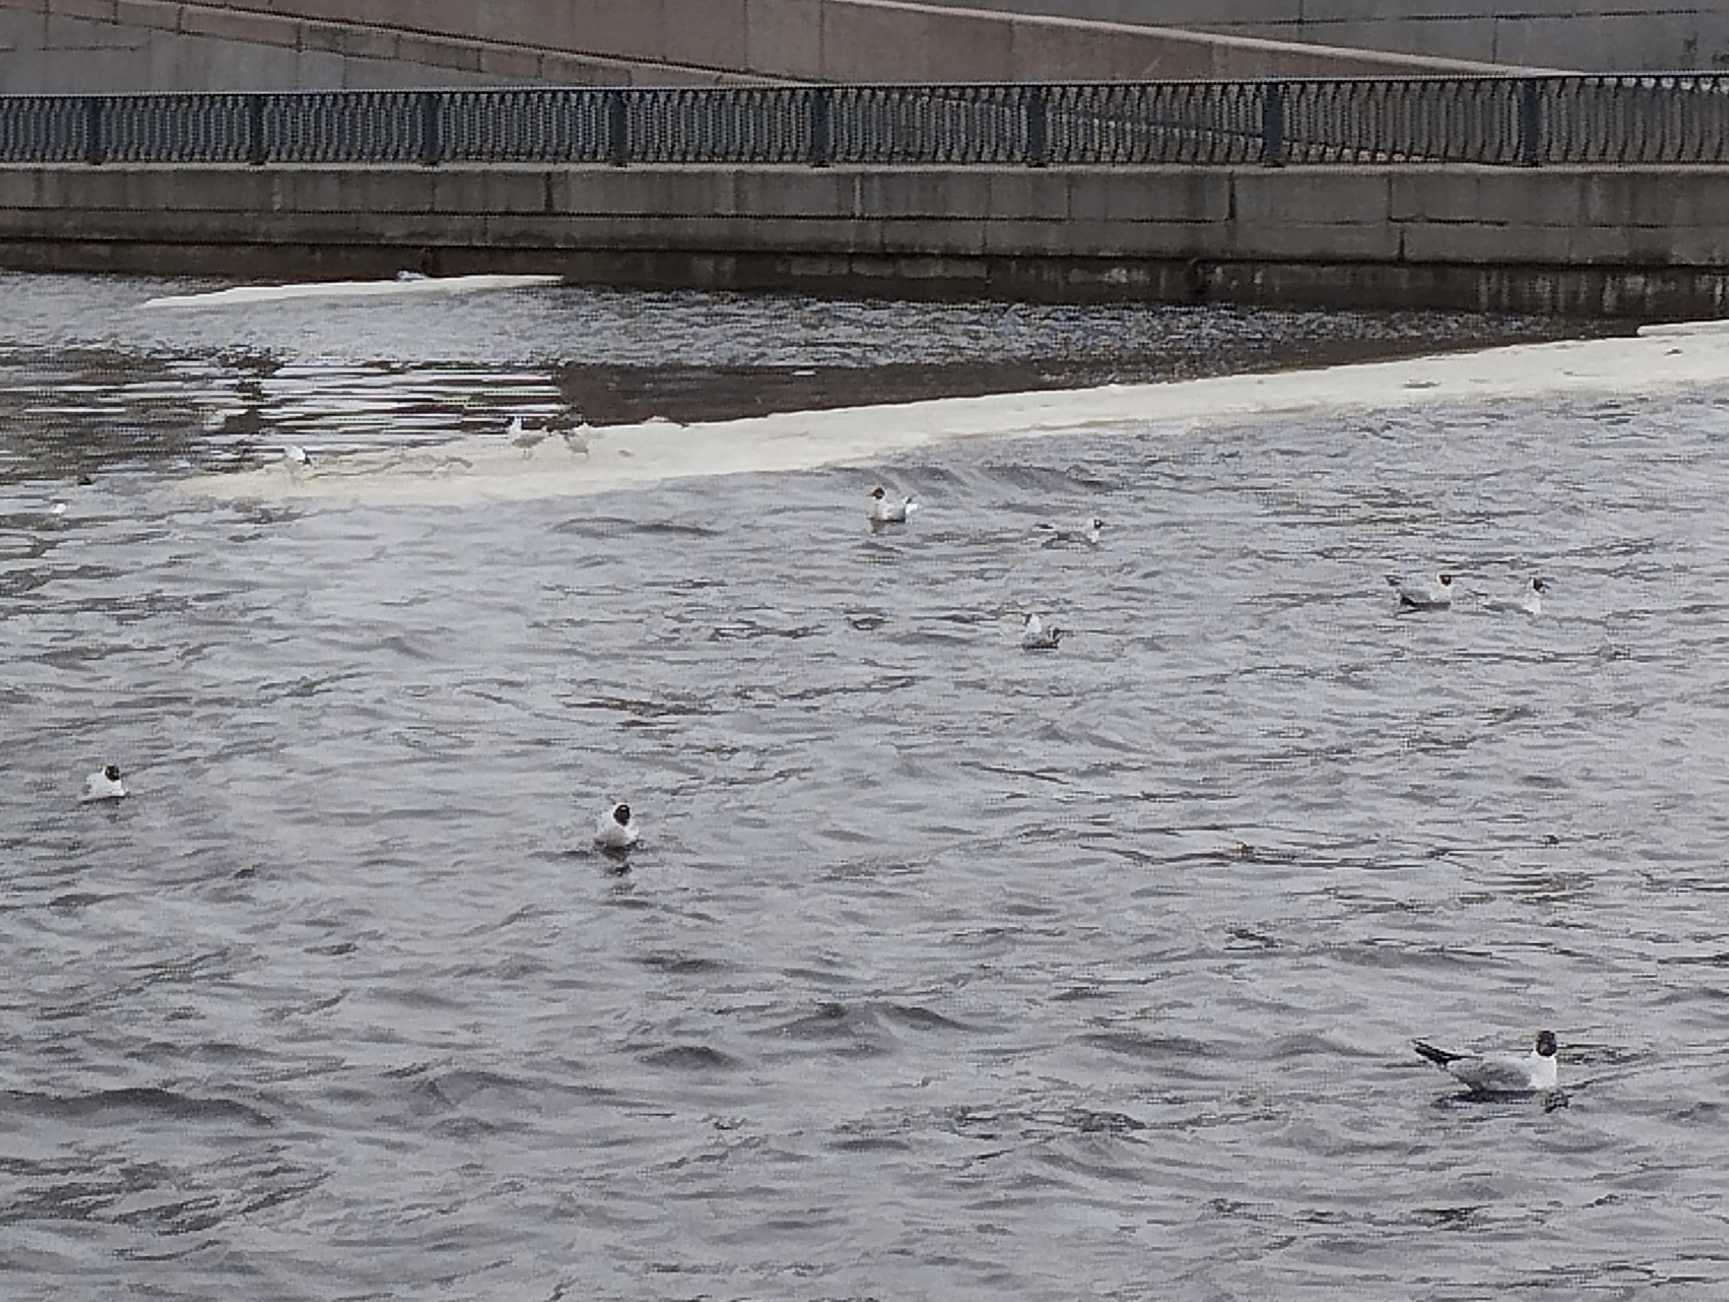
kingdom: Animalia
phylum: Chordata
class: Aves
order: Charadriiformes
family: Laridae
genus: Chroicocephalus
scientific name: Chroicocephalus ridibundus
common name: Black-headed gull
